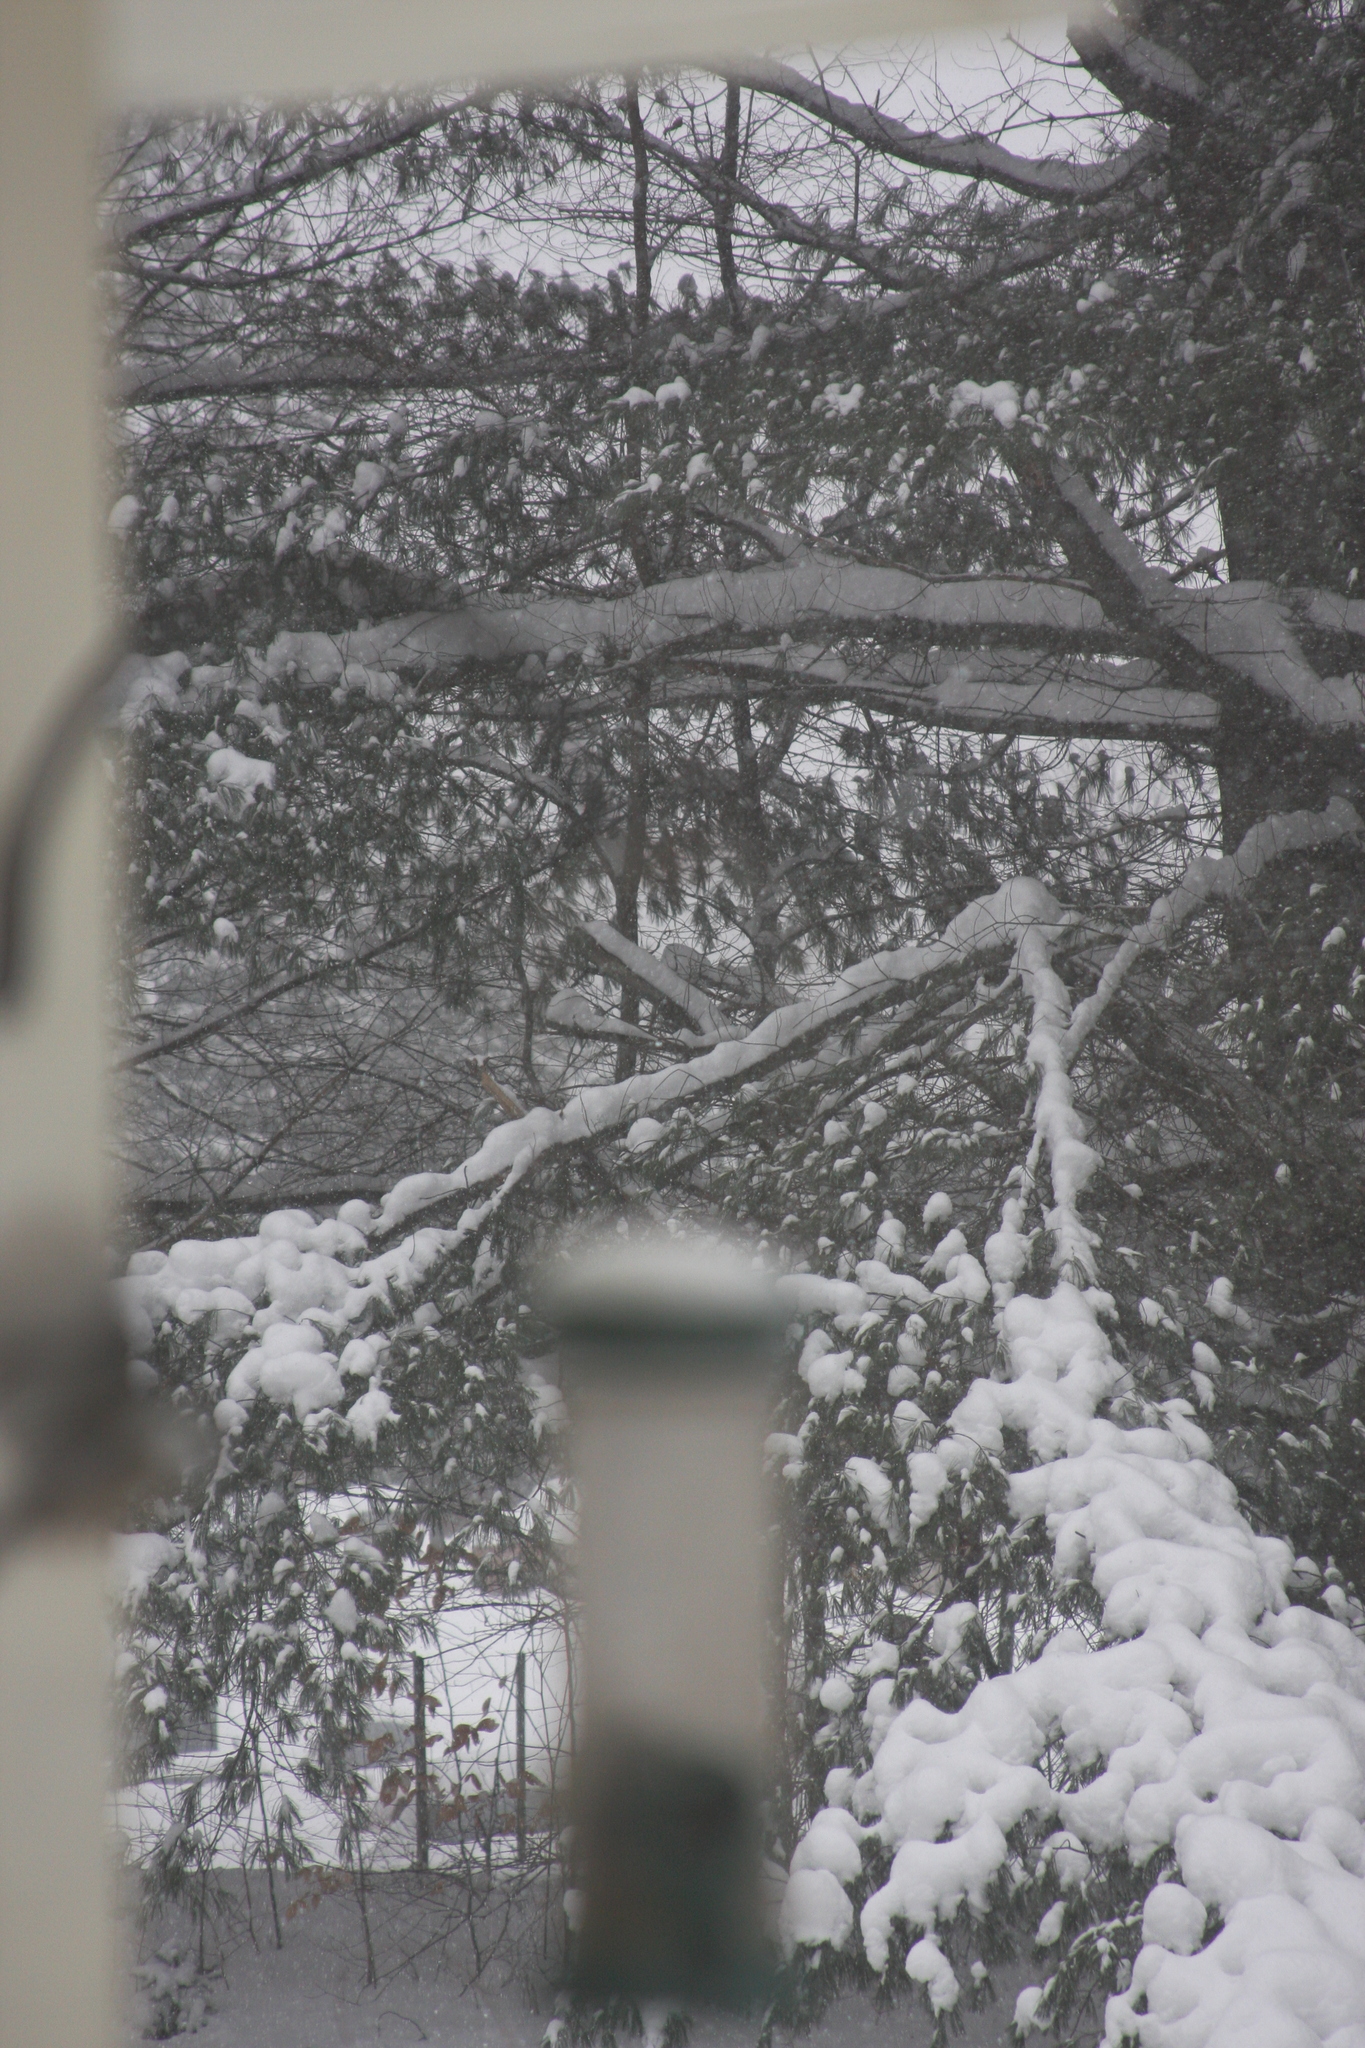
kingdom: Plantae
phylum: Tracheophyta
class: Pinopsida
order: Pinales
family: Pinaceae
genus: Pinus
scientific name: Pinus strobus
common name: Weymouth pine
